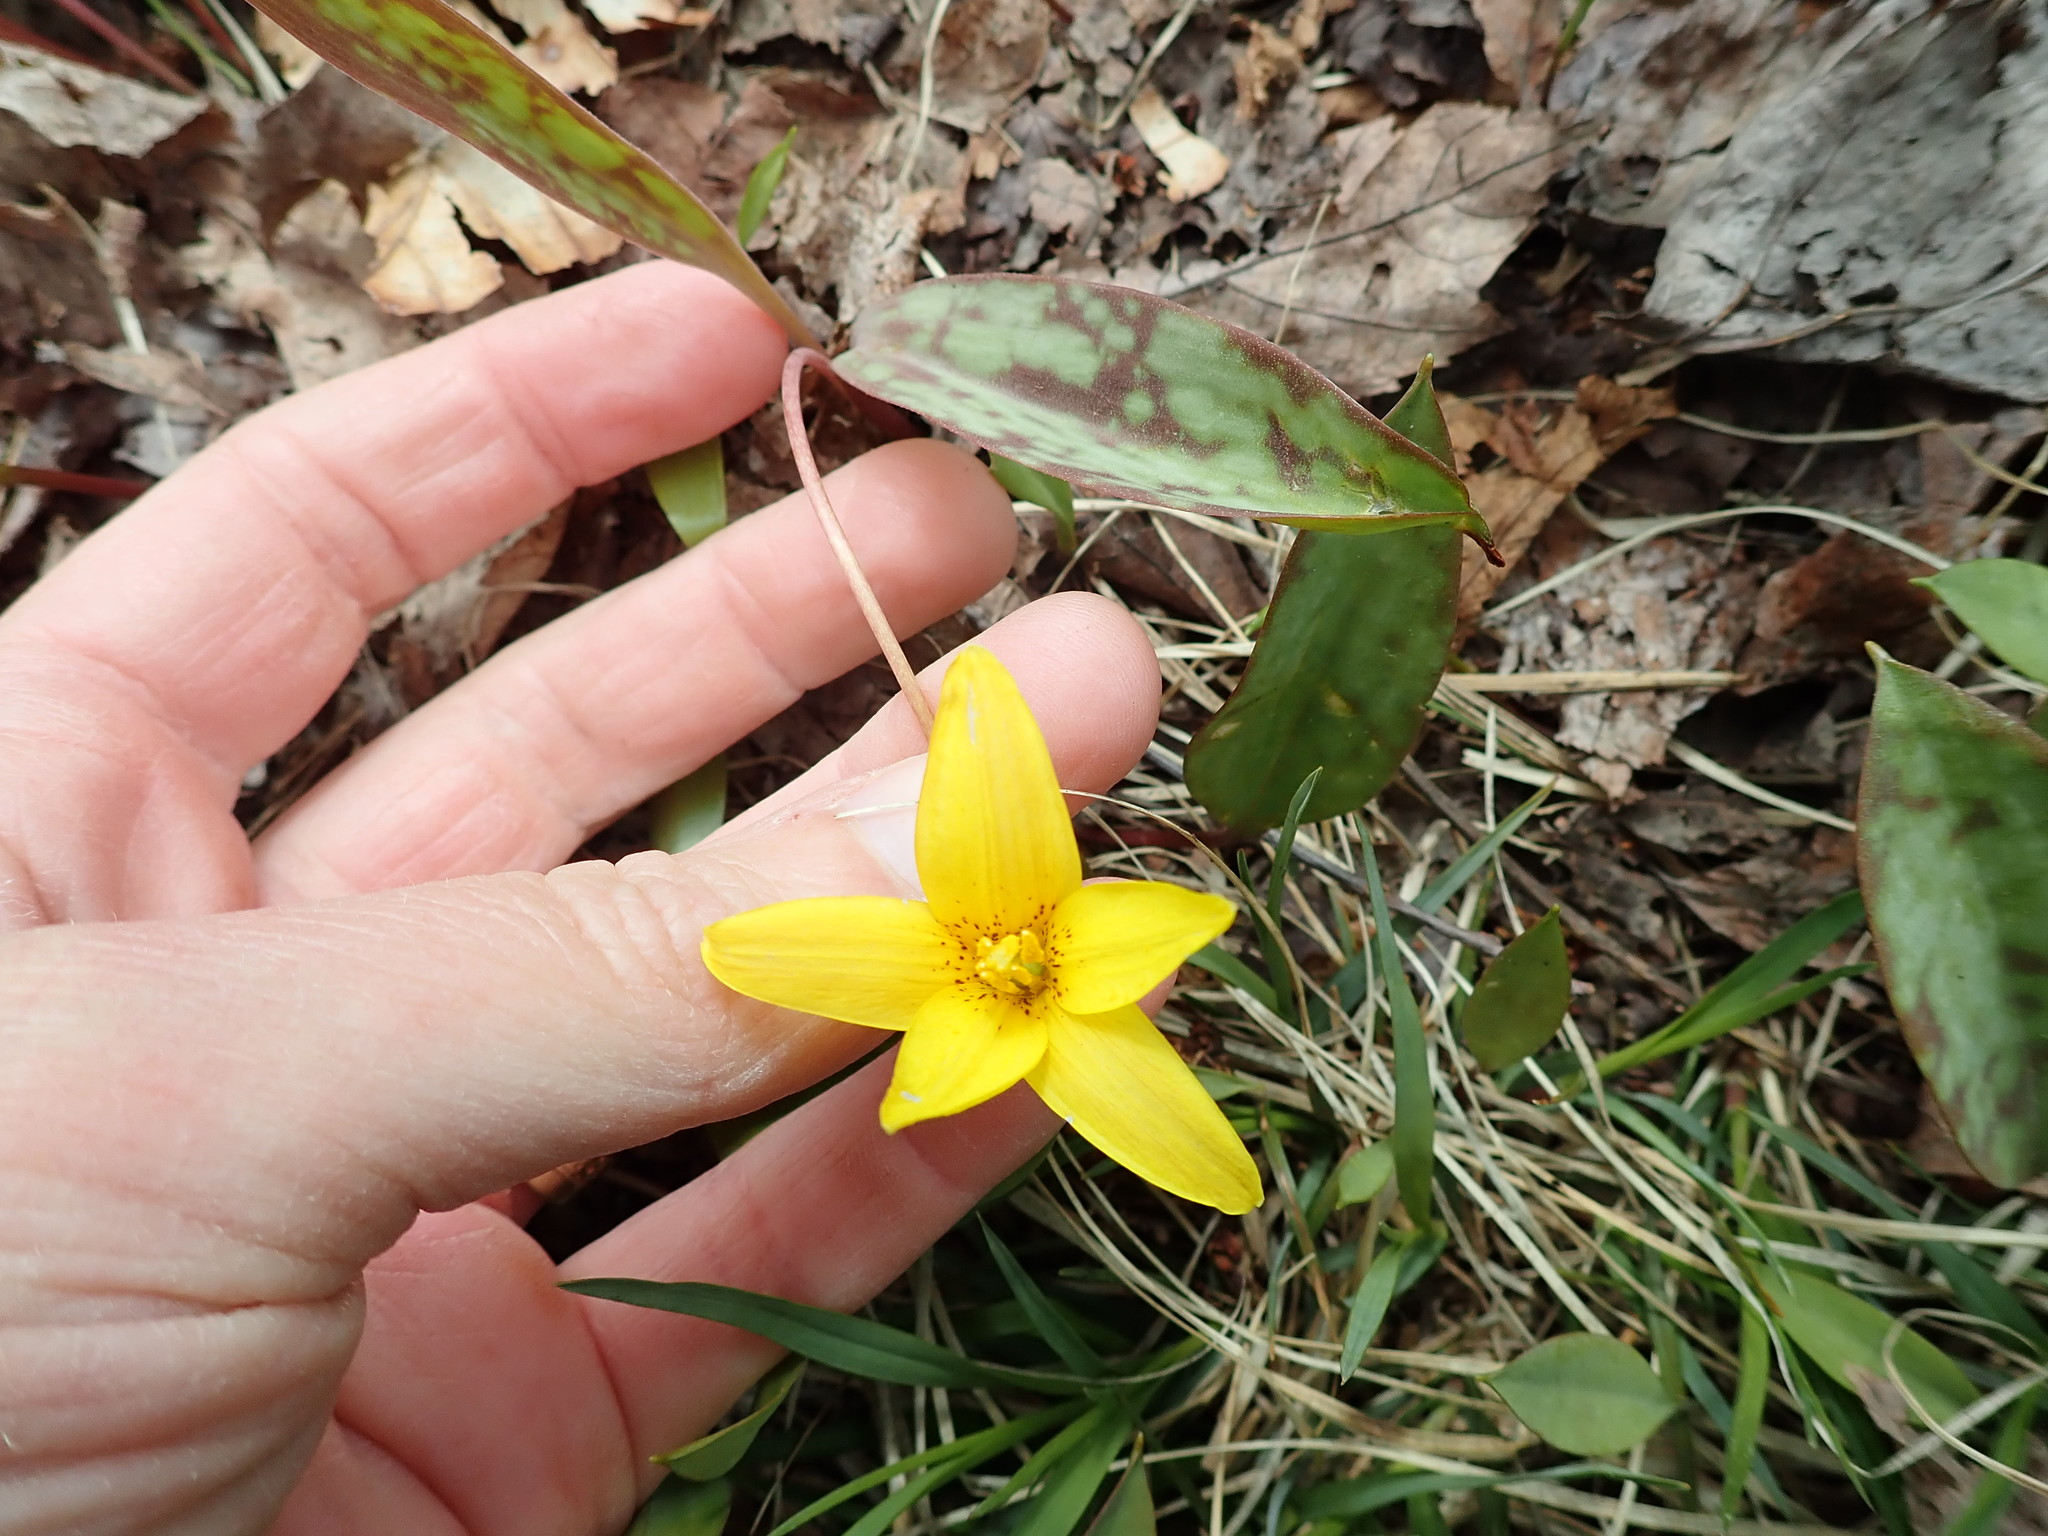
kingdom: Plantae
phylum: Tracheophyta
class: Liliopsida
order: Liliales
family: Liliaceae
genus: Erythronium
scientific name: Erythronium americanum
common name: Yellow adder's-tongue
